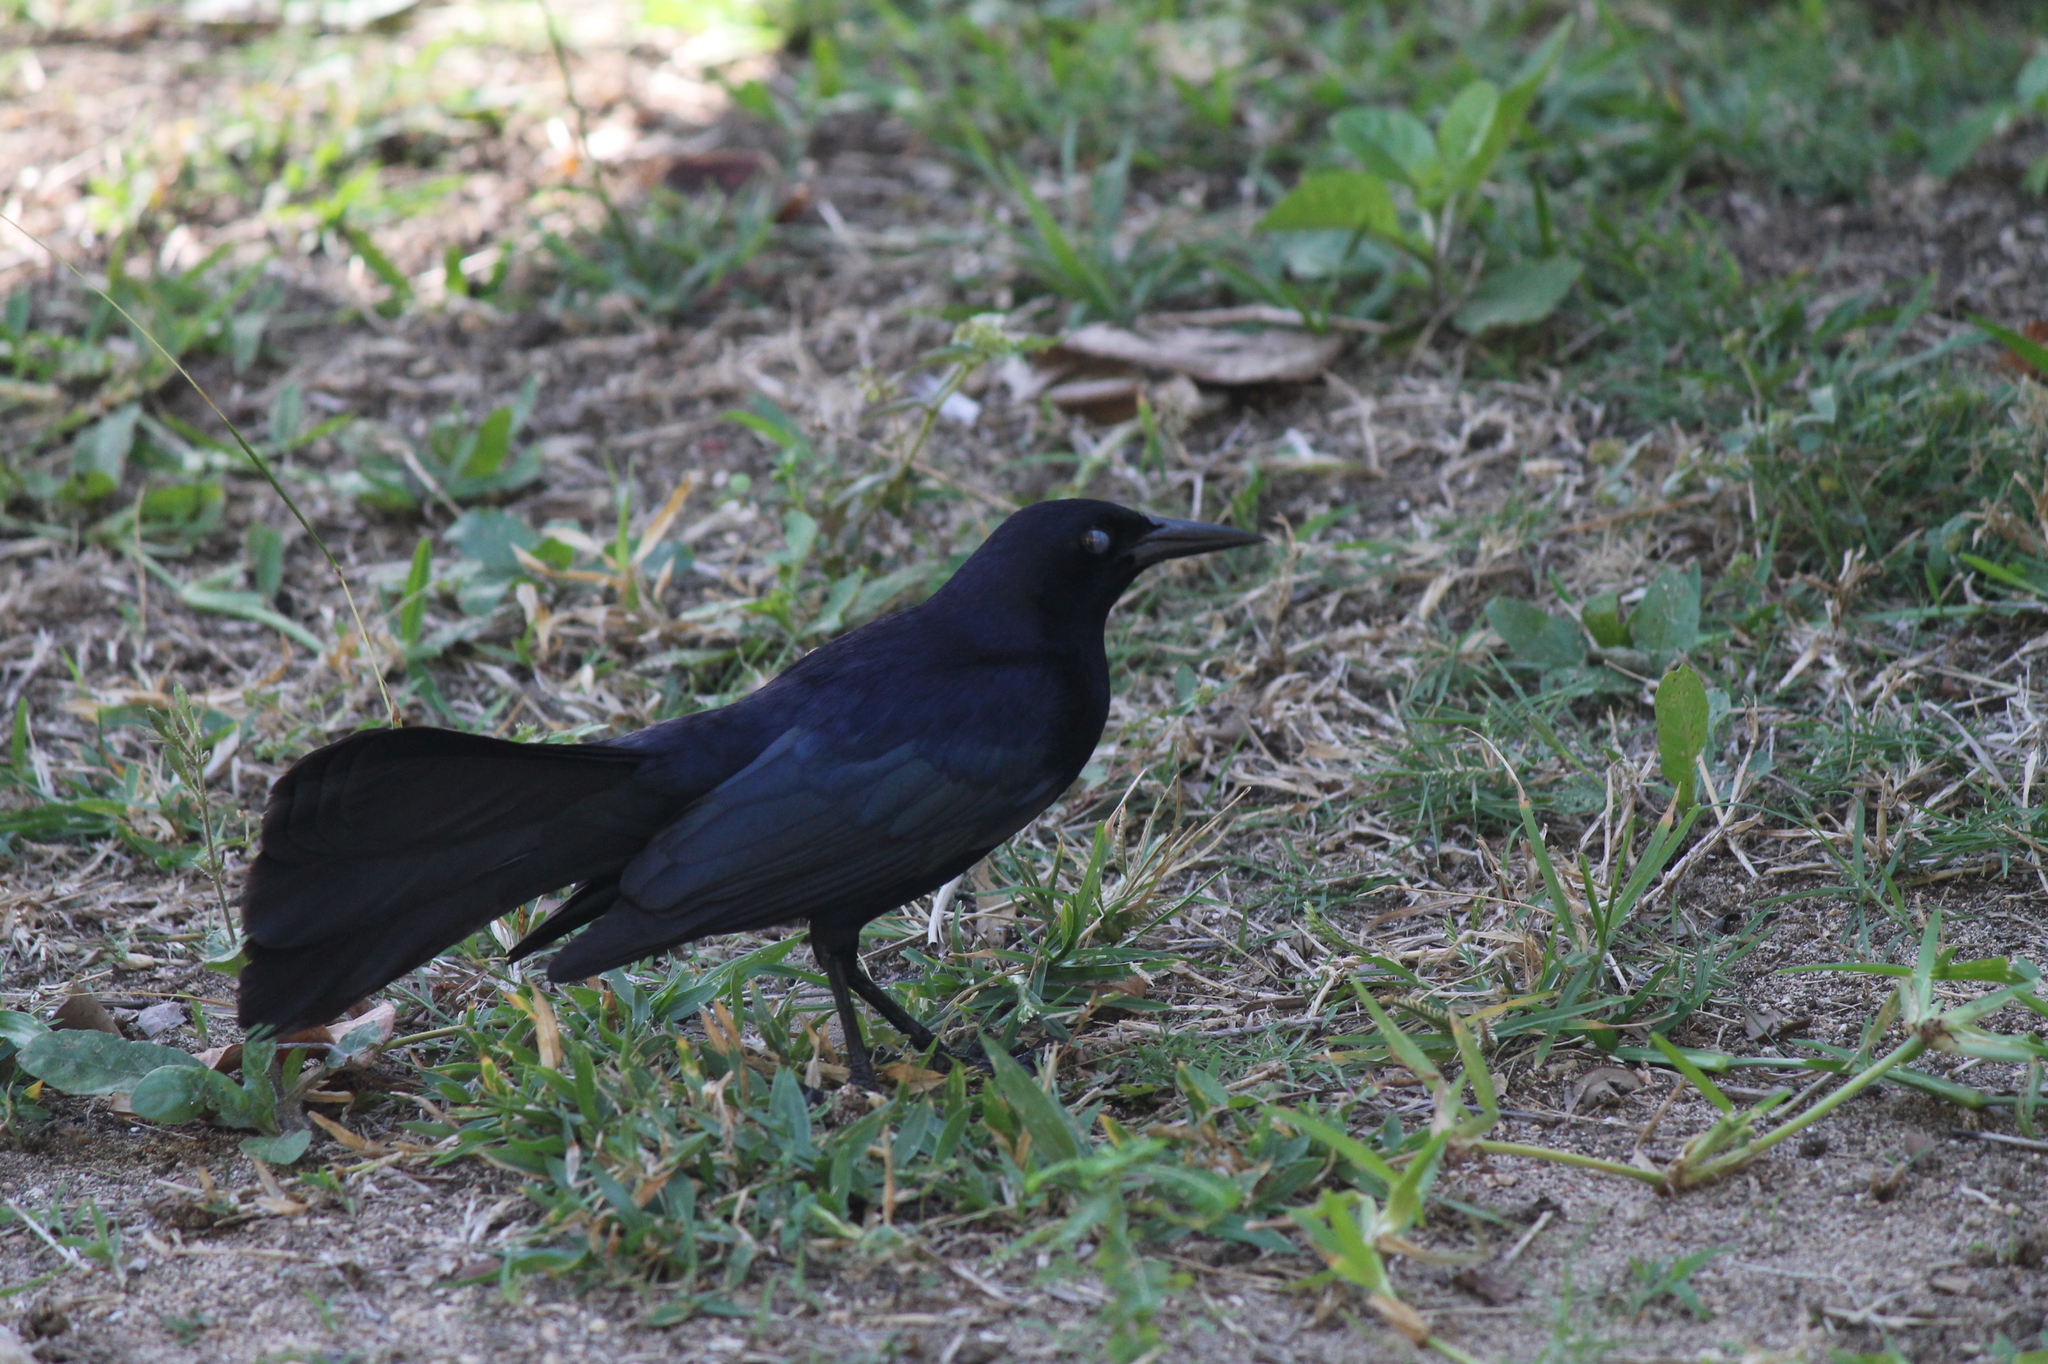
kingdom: Animalia
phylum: Chordata
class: Aves
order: Passeriformes
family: Icteridae
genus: Quiscalus
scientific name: Quiscalus niger
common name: Greater antillean grackle
